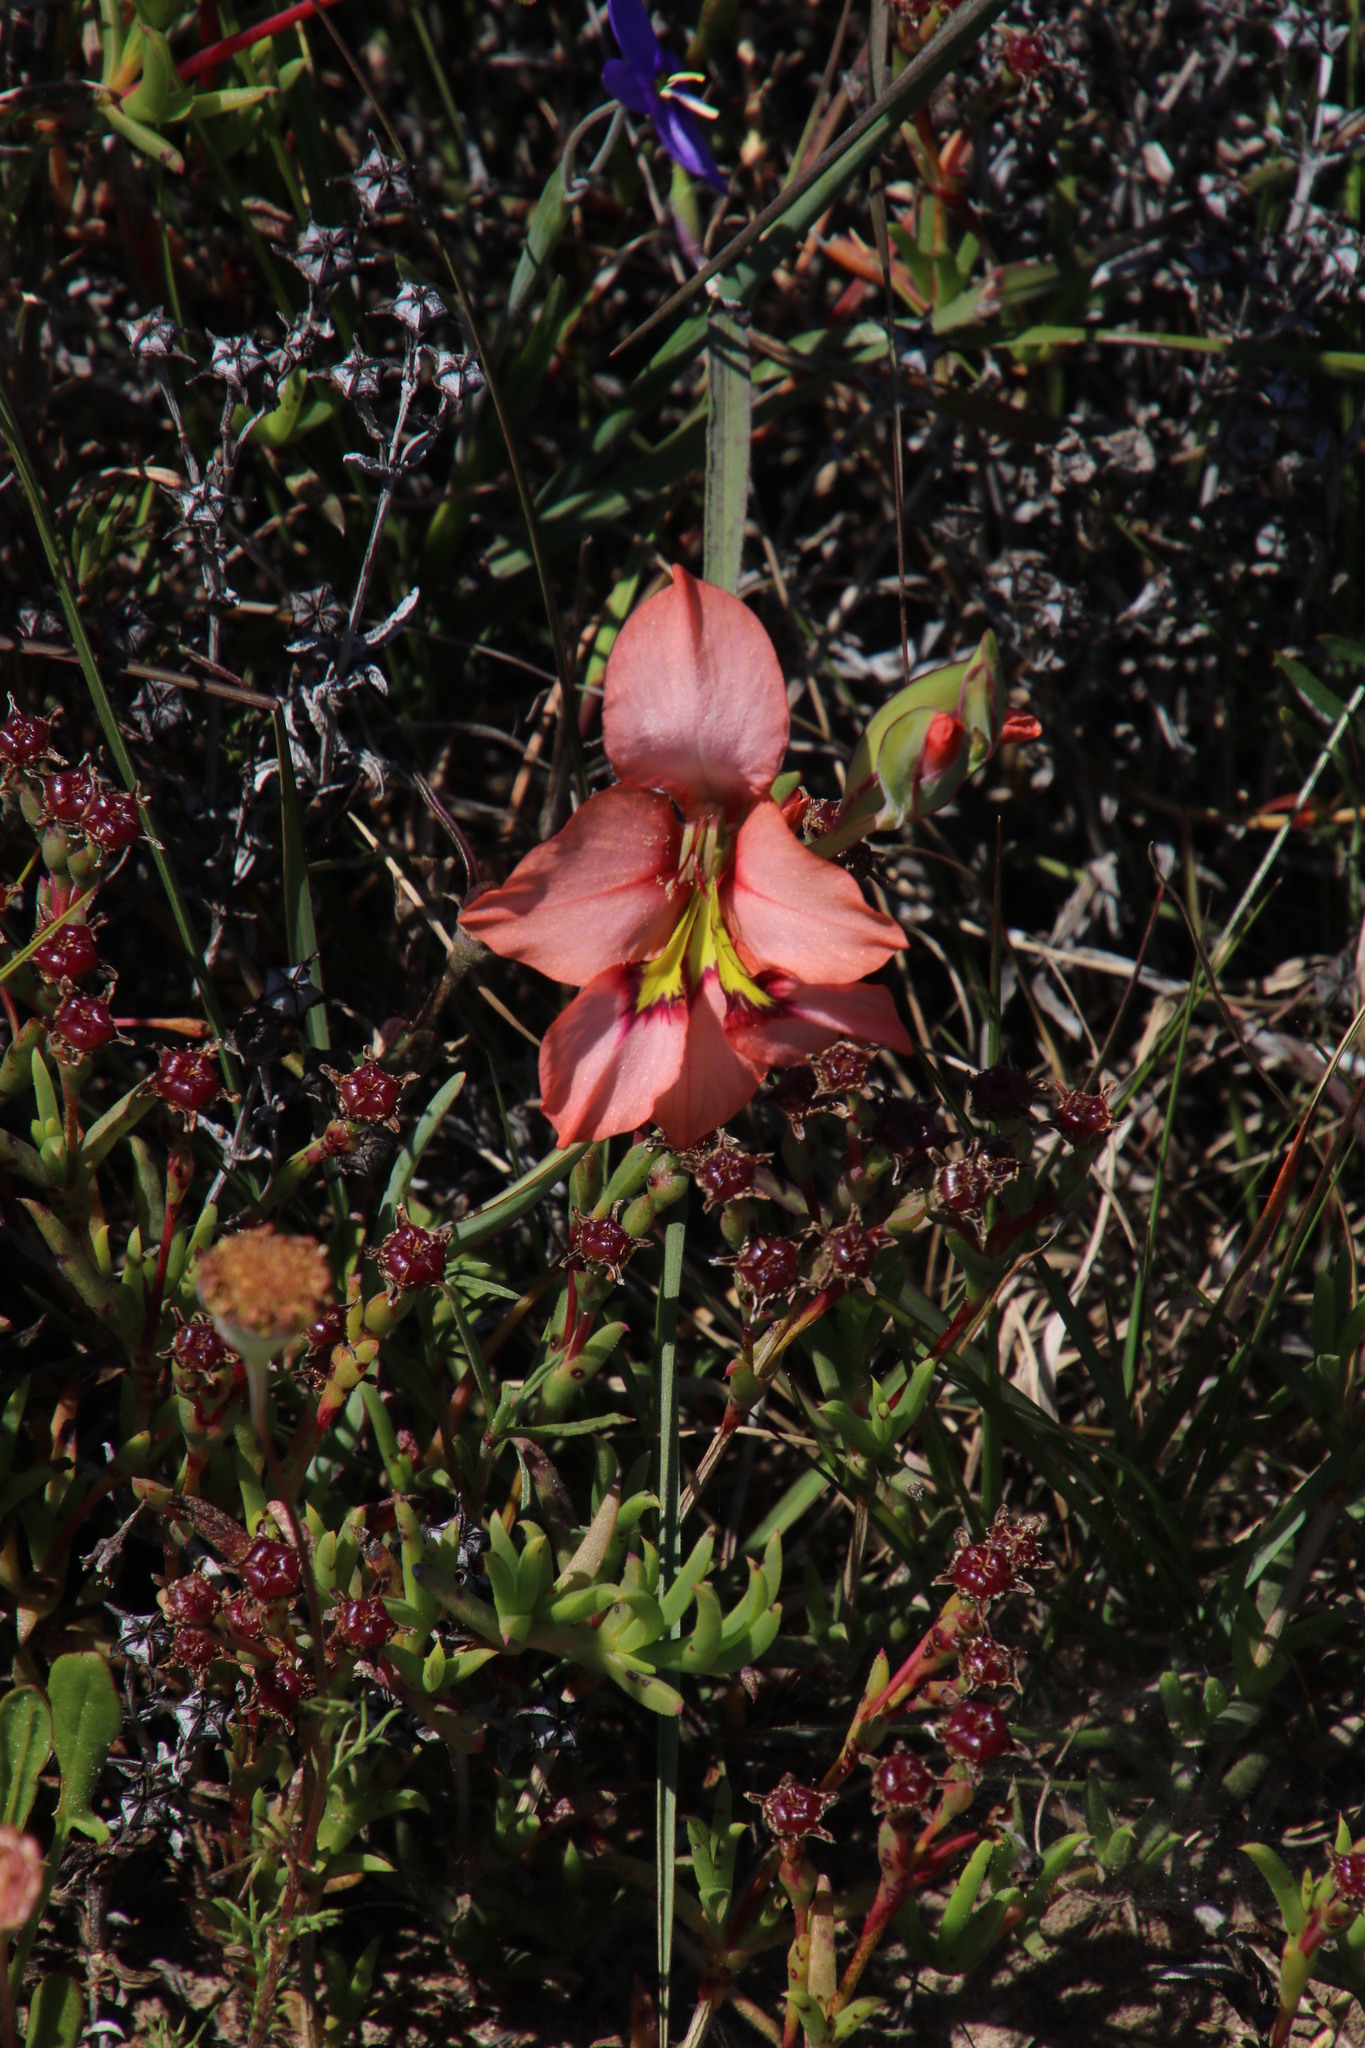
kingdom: Plantae
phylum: Tracheophyta
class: Liliopsida
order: Asparagales
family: Iridaceae
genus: Gladiolus
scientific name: Gladiolus meliusculus
